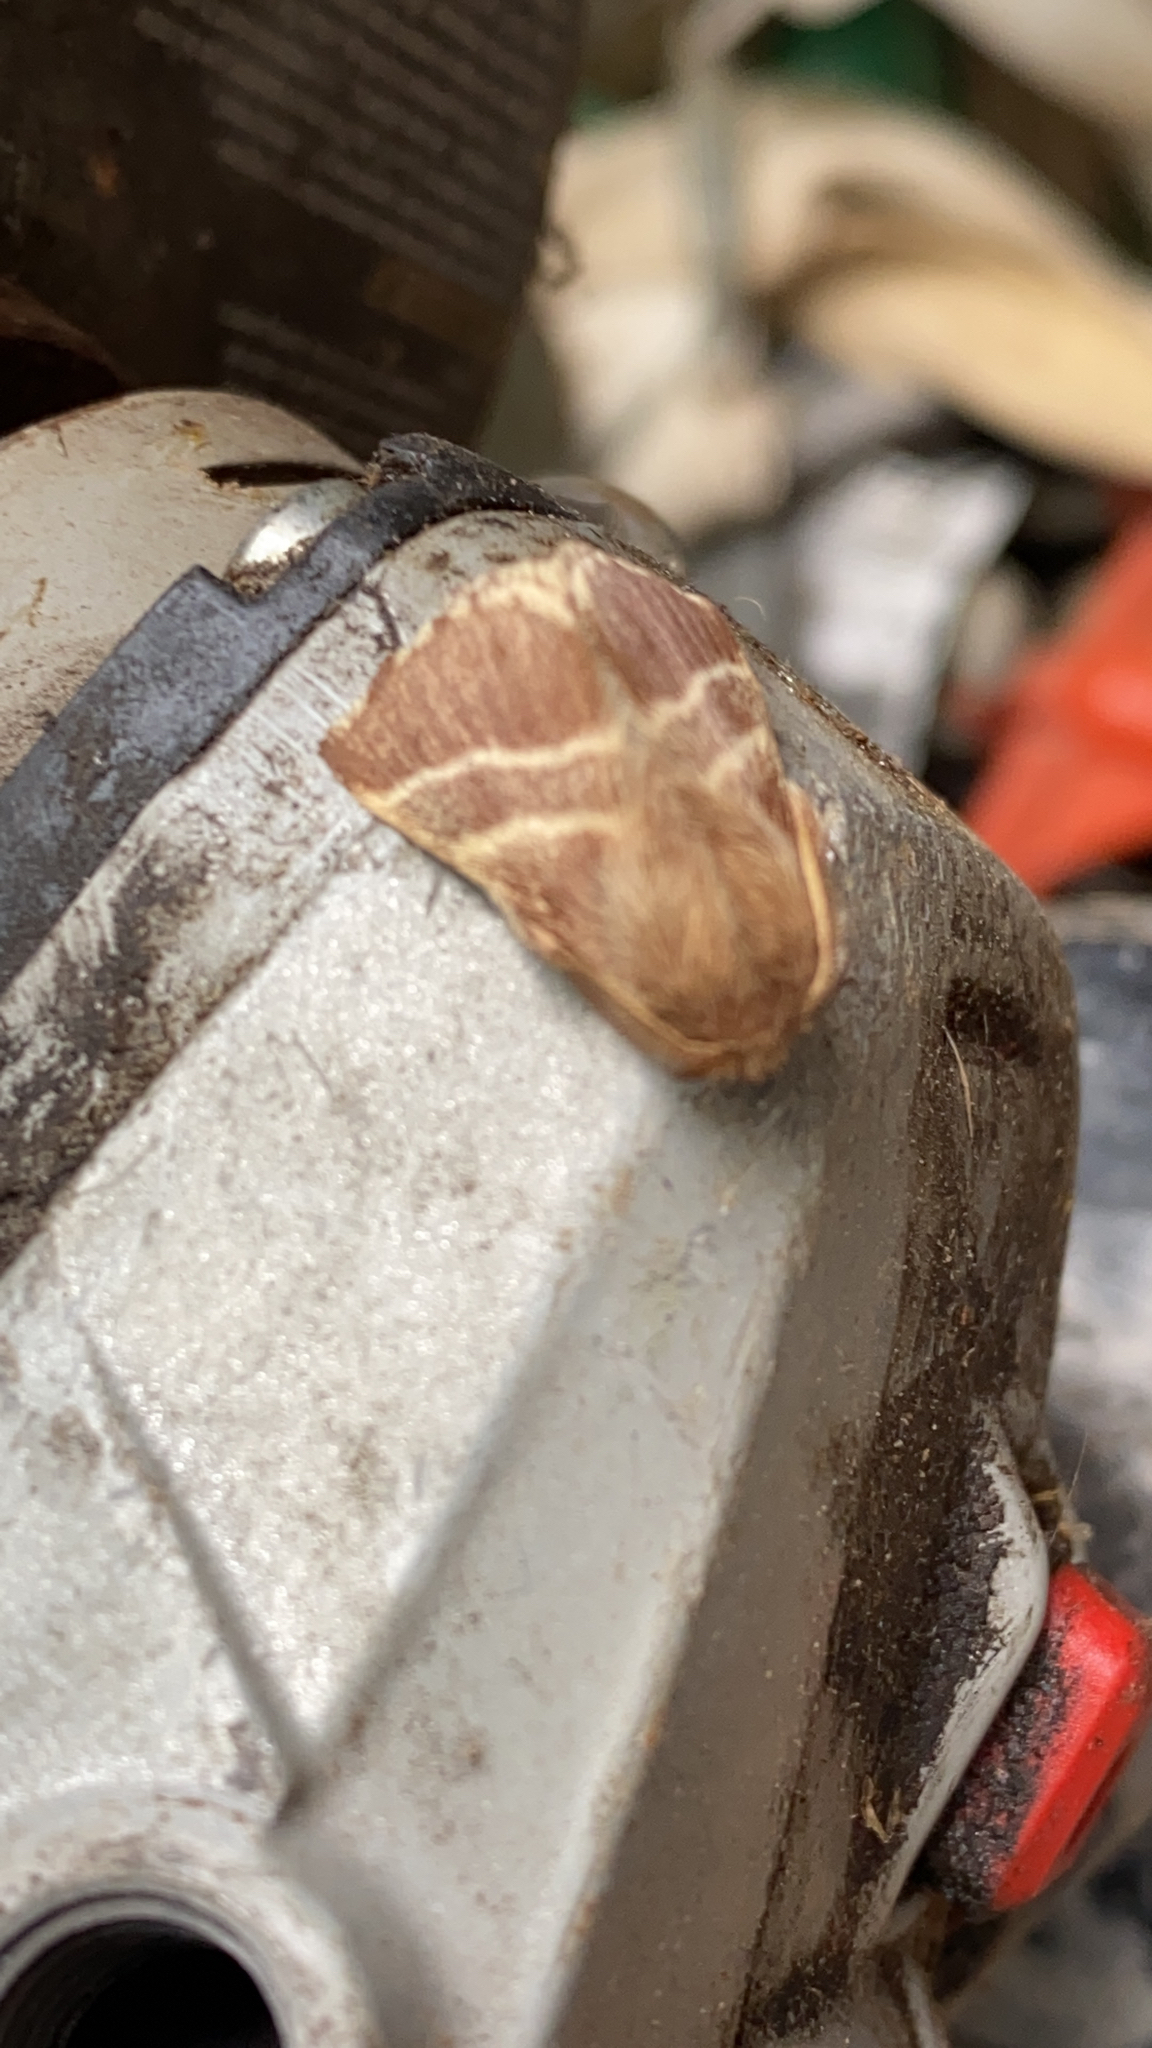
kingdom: Animalia
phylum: Arthropoda
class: Insecta
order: Lepidoptera
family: Lasiocampidae
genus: Malacosoma
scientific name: Malacosoma americana
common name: Eastern tent caterpillar moth
